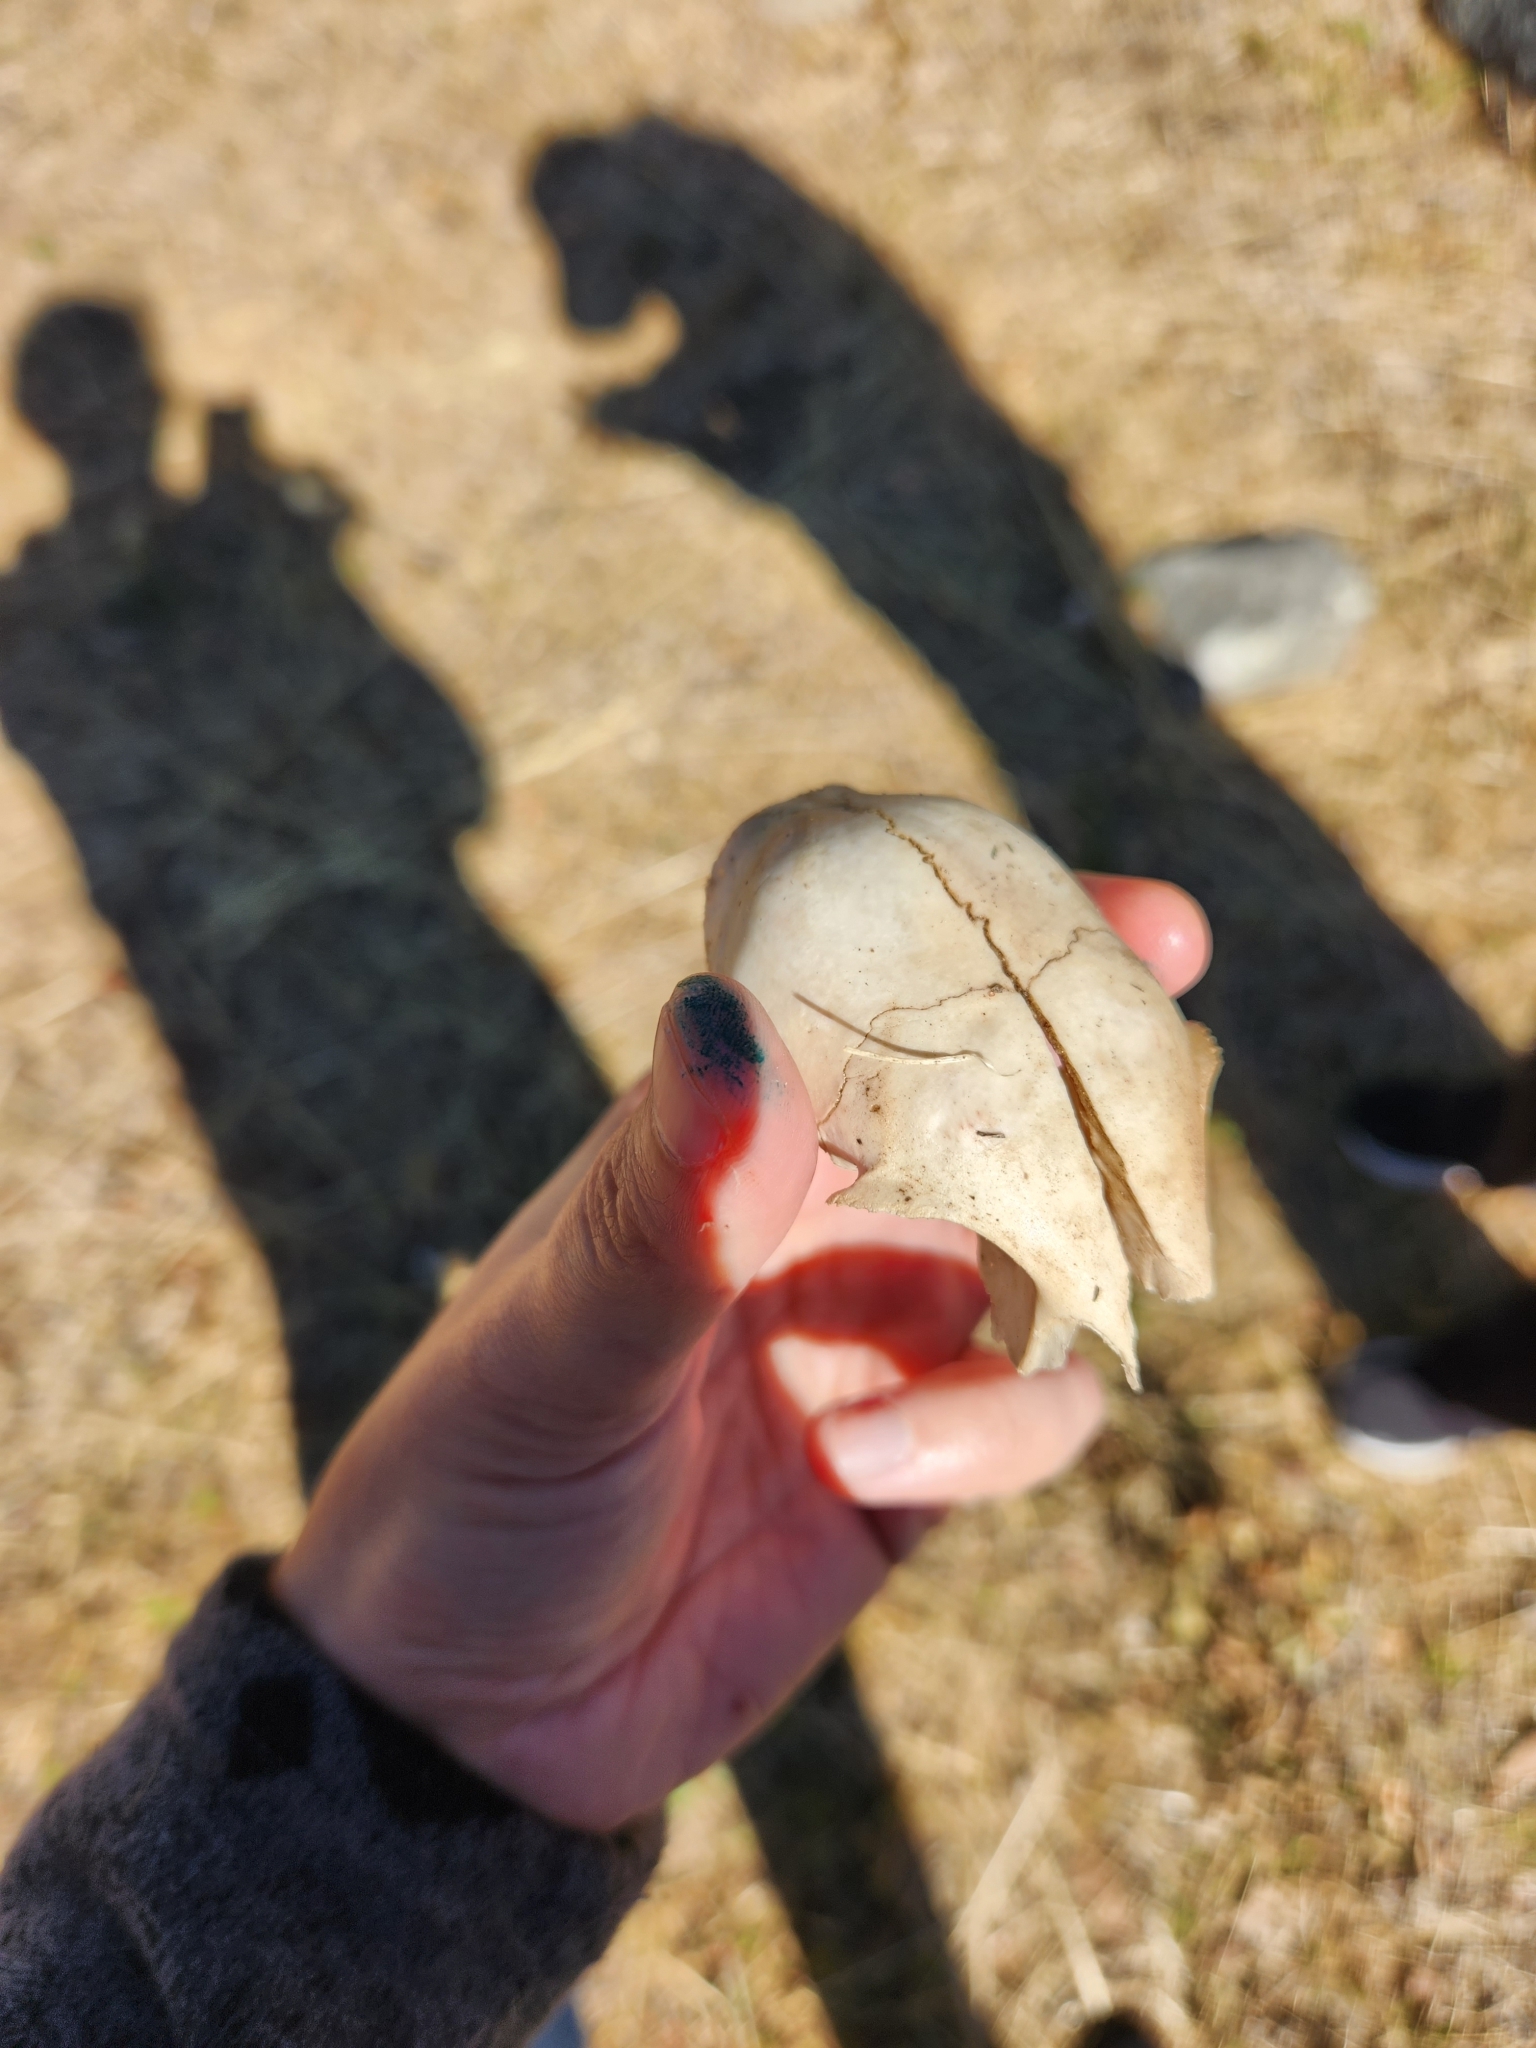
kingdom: Animalia
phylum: Chordata
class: Mammalia
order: Carnivora
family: Felidae
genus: Felis
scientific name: Felis catus
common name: Domestic cat
